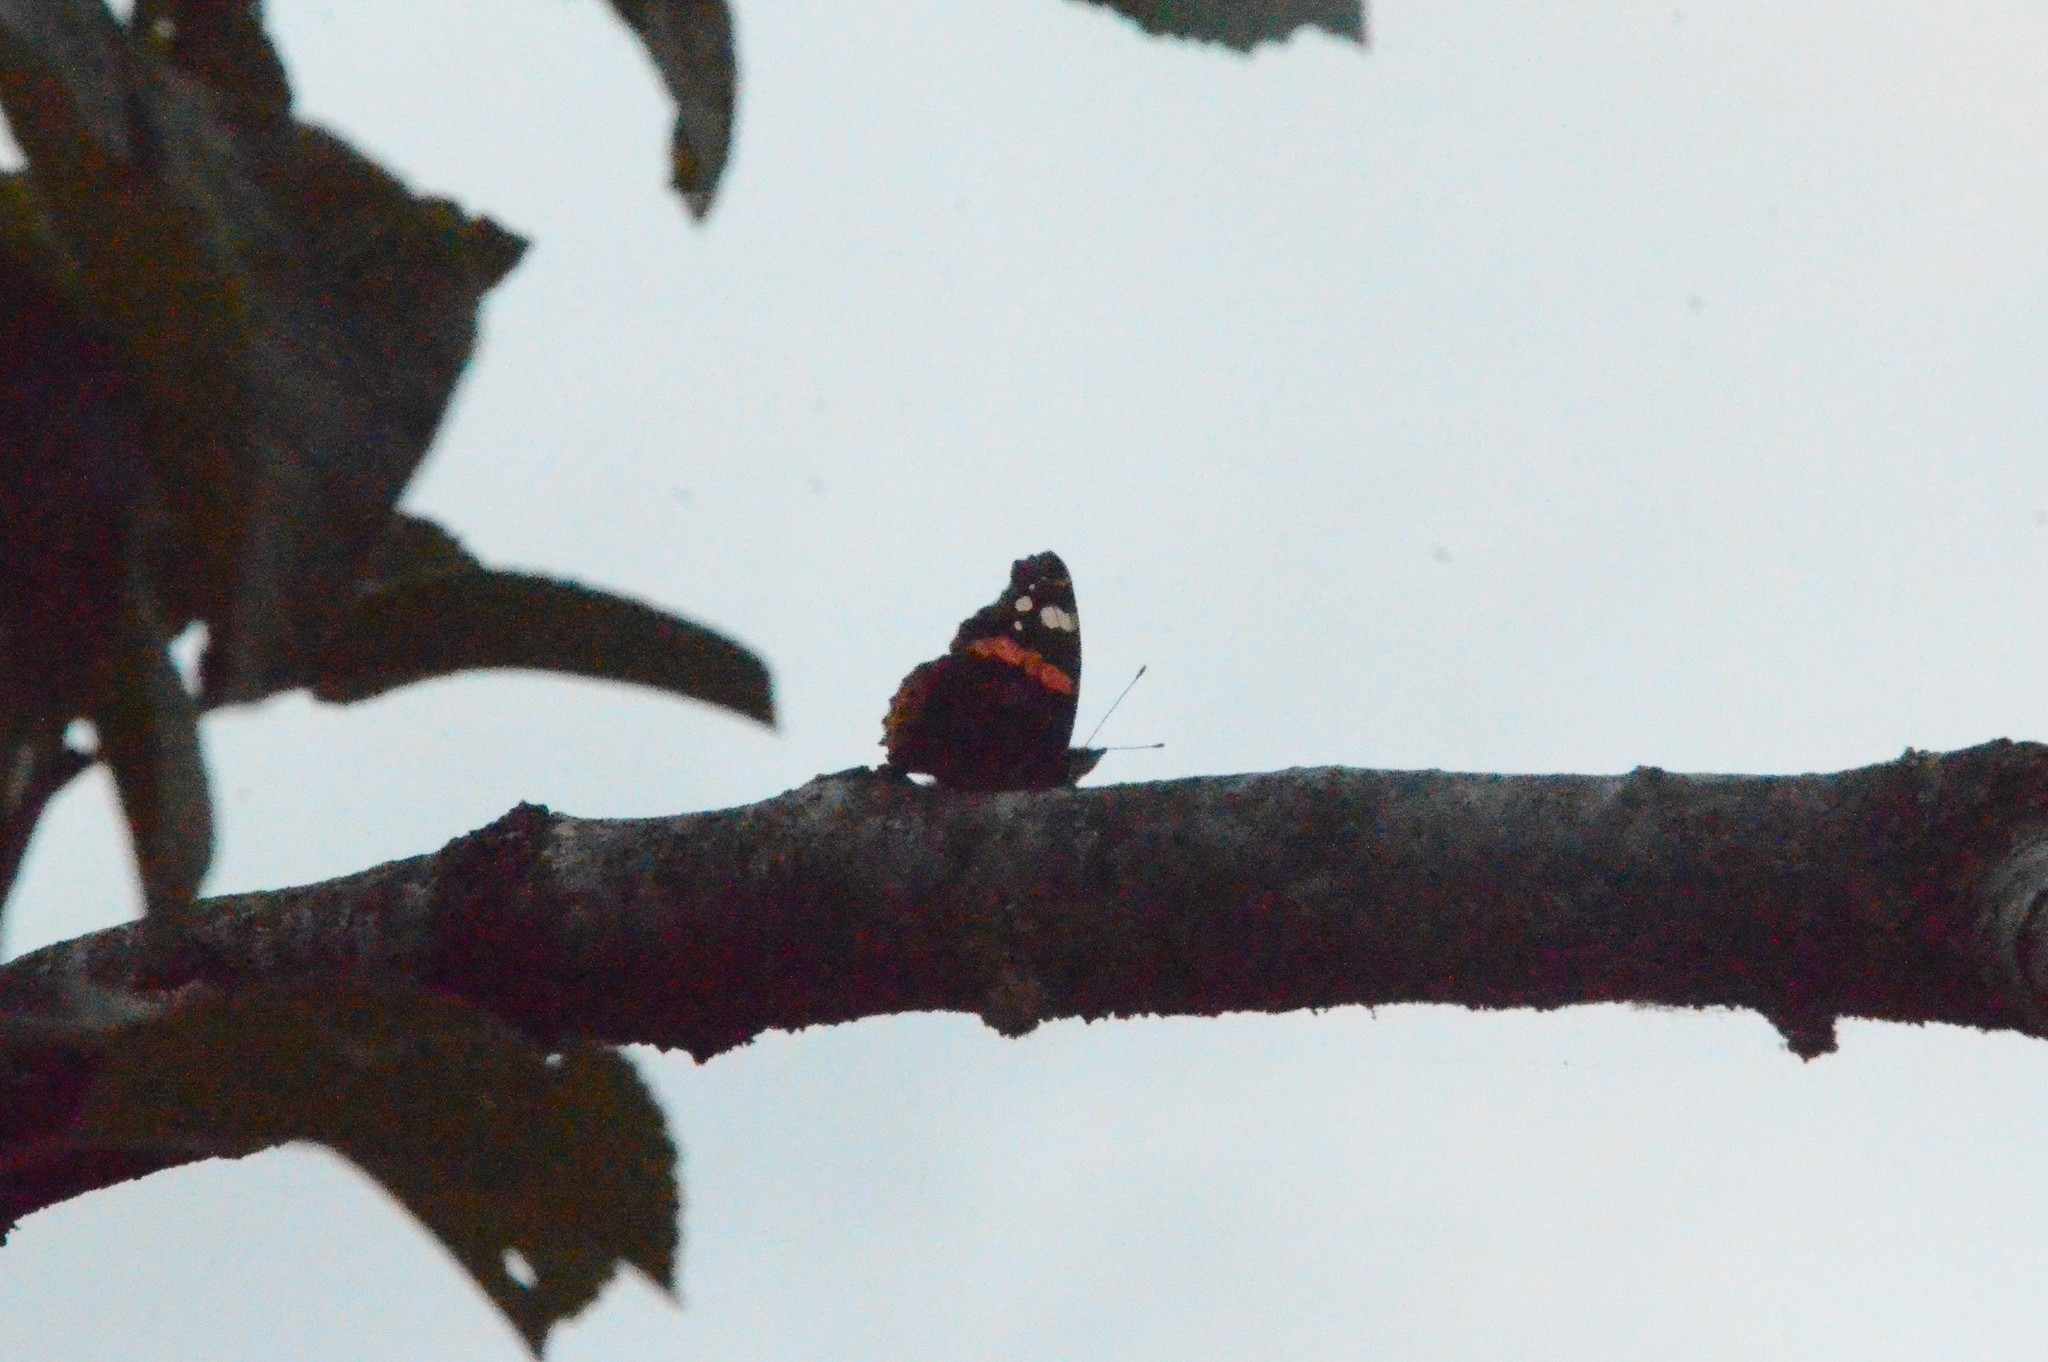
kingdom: Animalia
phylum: Arthropoda
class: Insecta
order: Lepidoptera
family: Nymphalidae
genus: Vanessa
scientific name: Vanessa atalanta
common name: Red admiral
